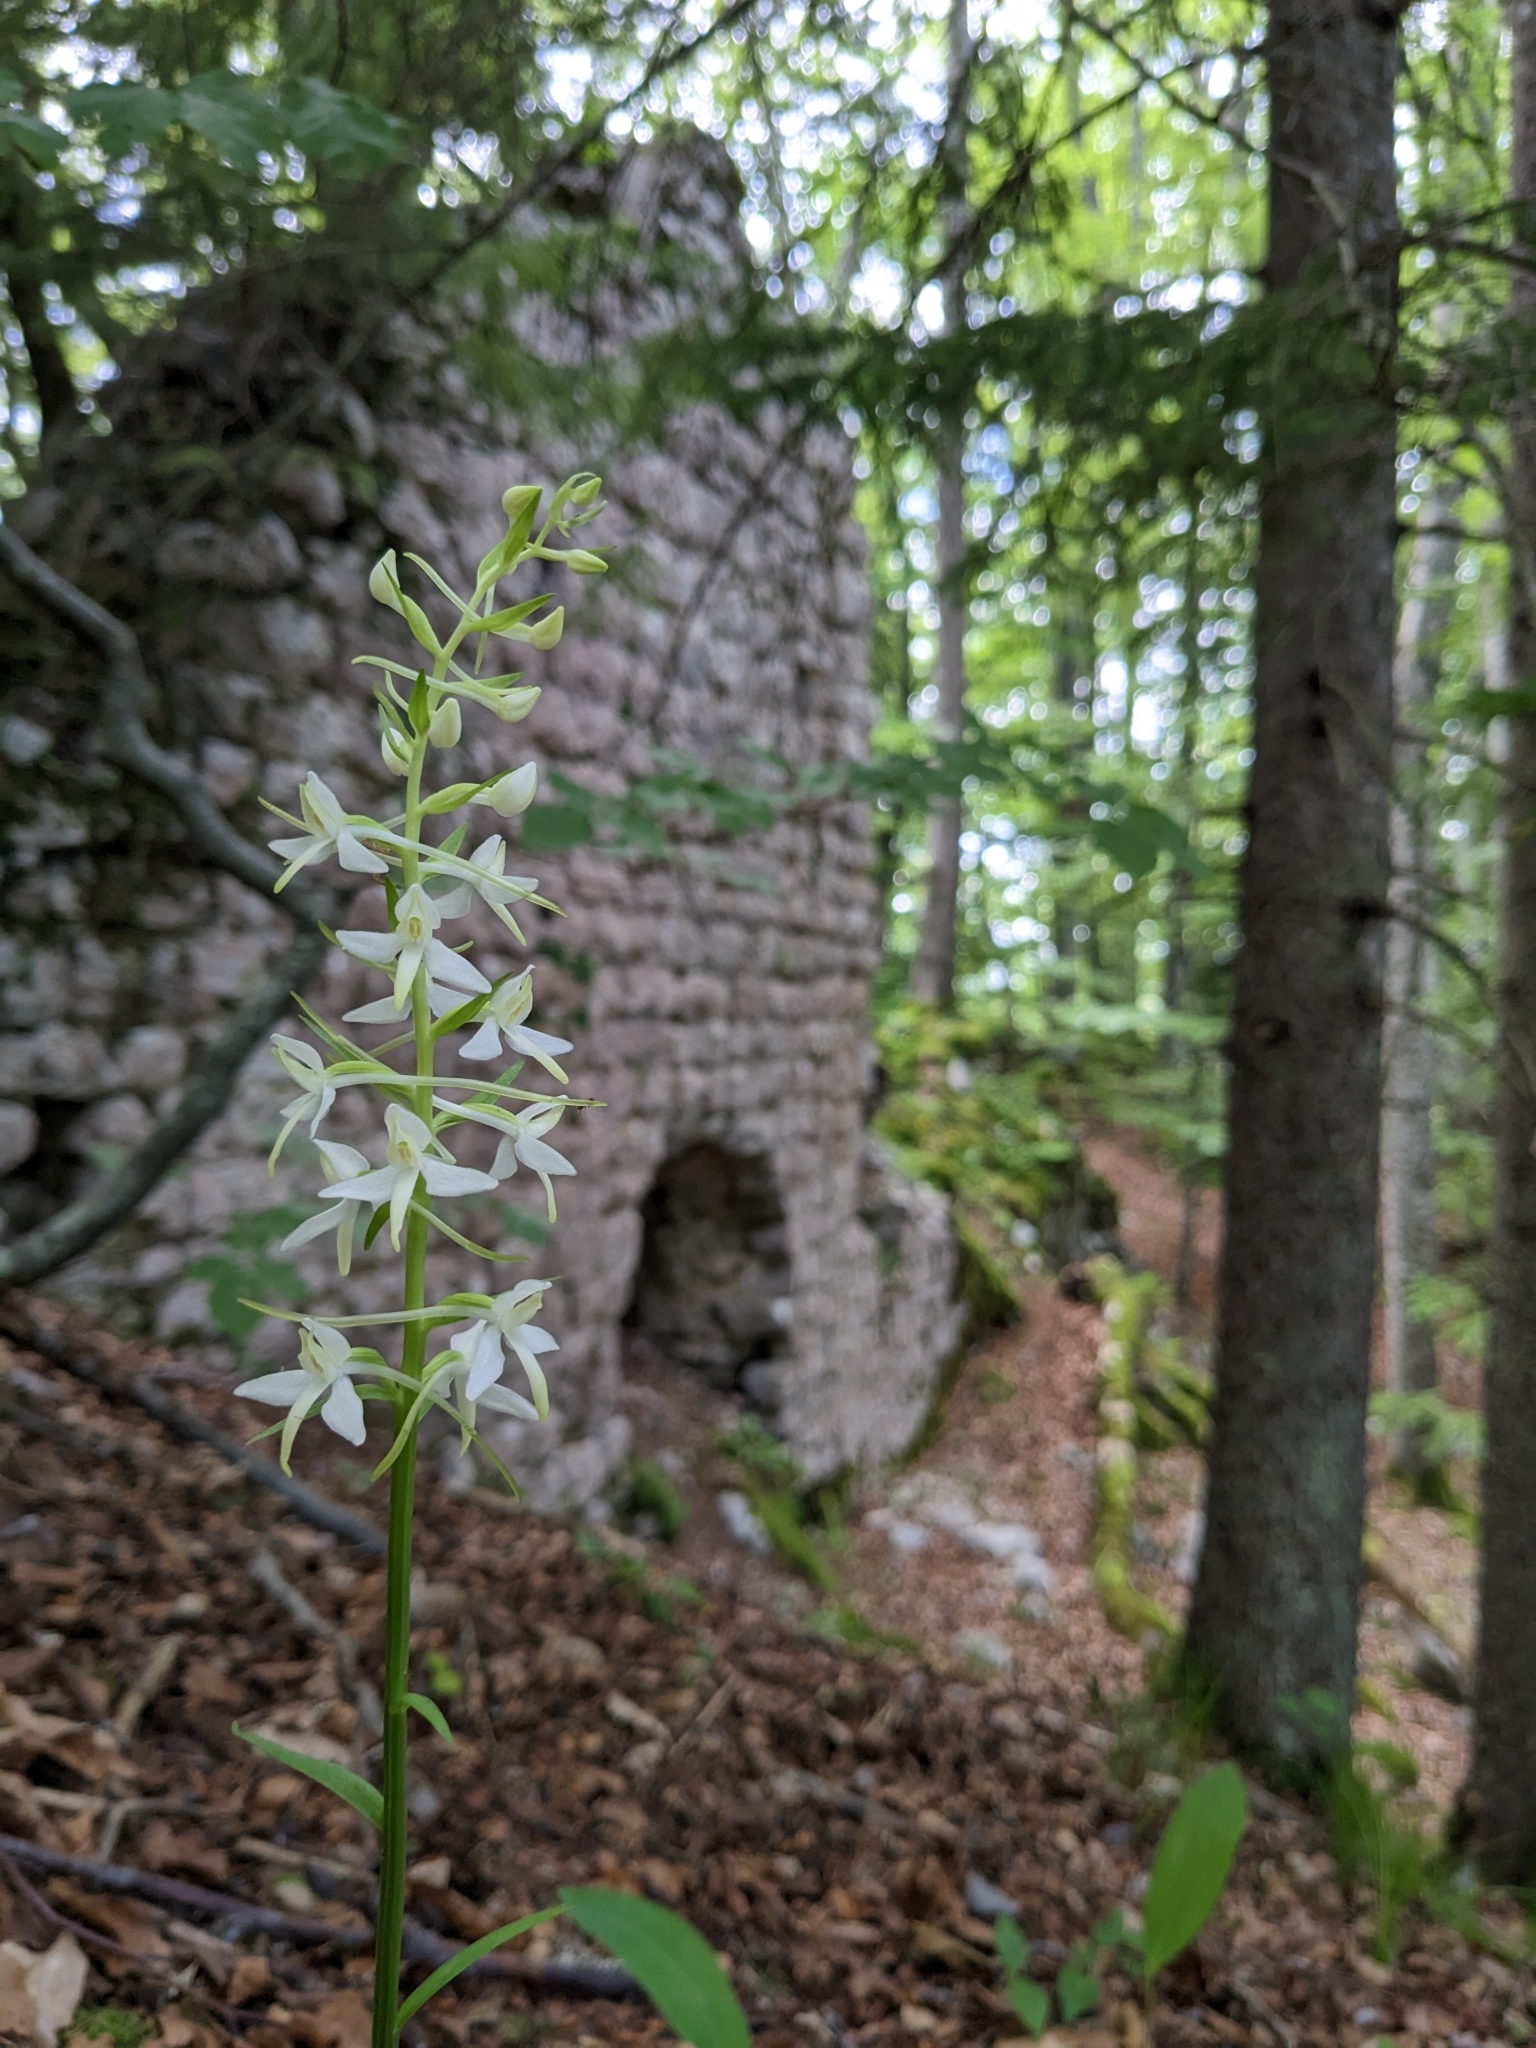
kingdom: Plantae
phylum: Tracheophyta
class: Liliopsida
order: Asparagales
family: Orchidaceae
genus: Platanthera
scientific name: Platanthera bifolia
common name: Lesser butterfly-orchid
